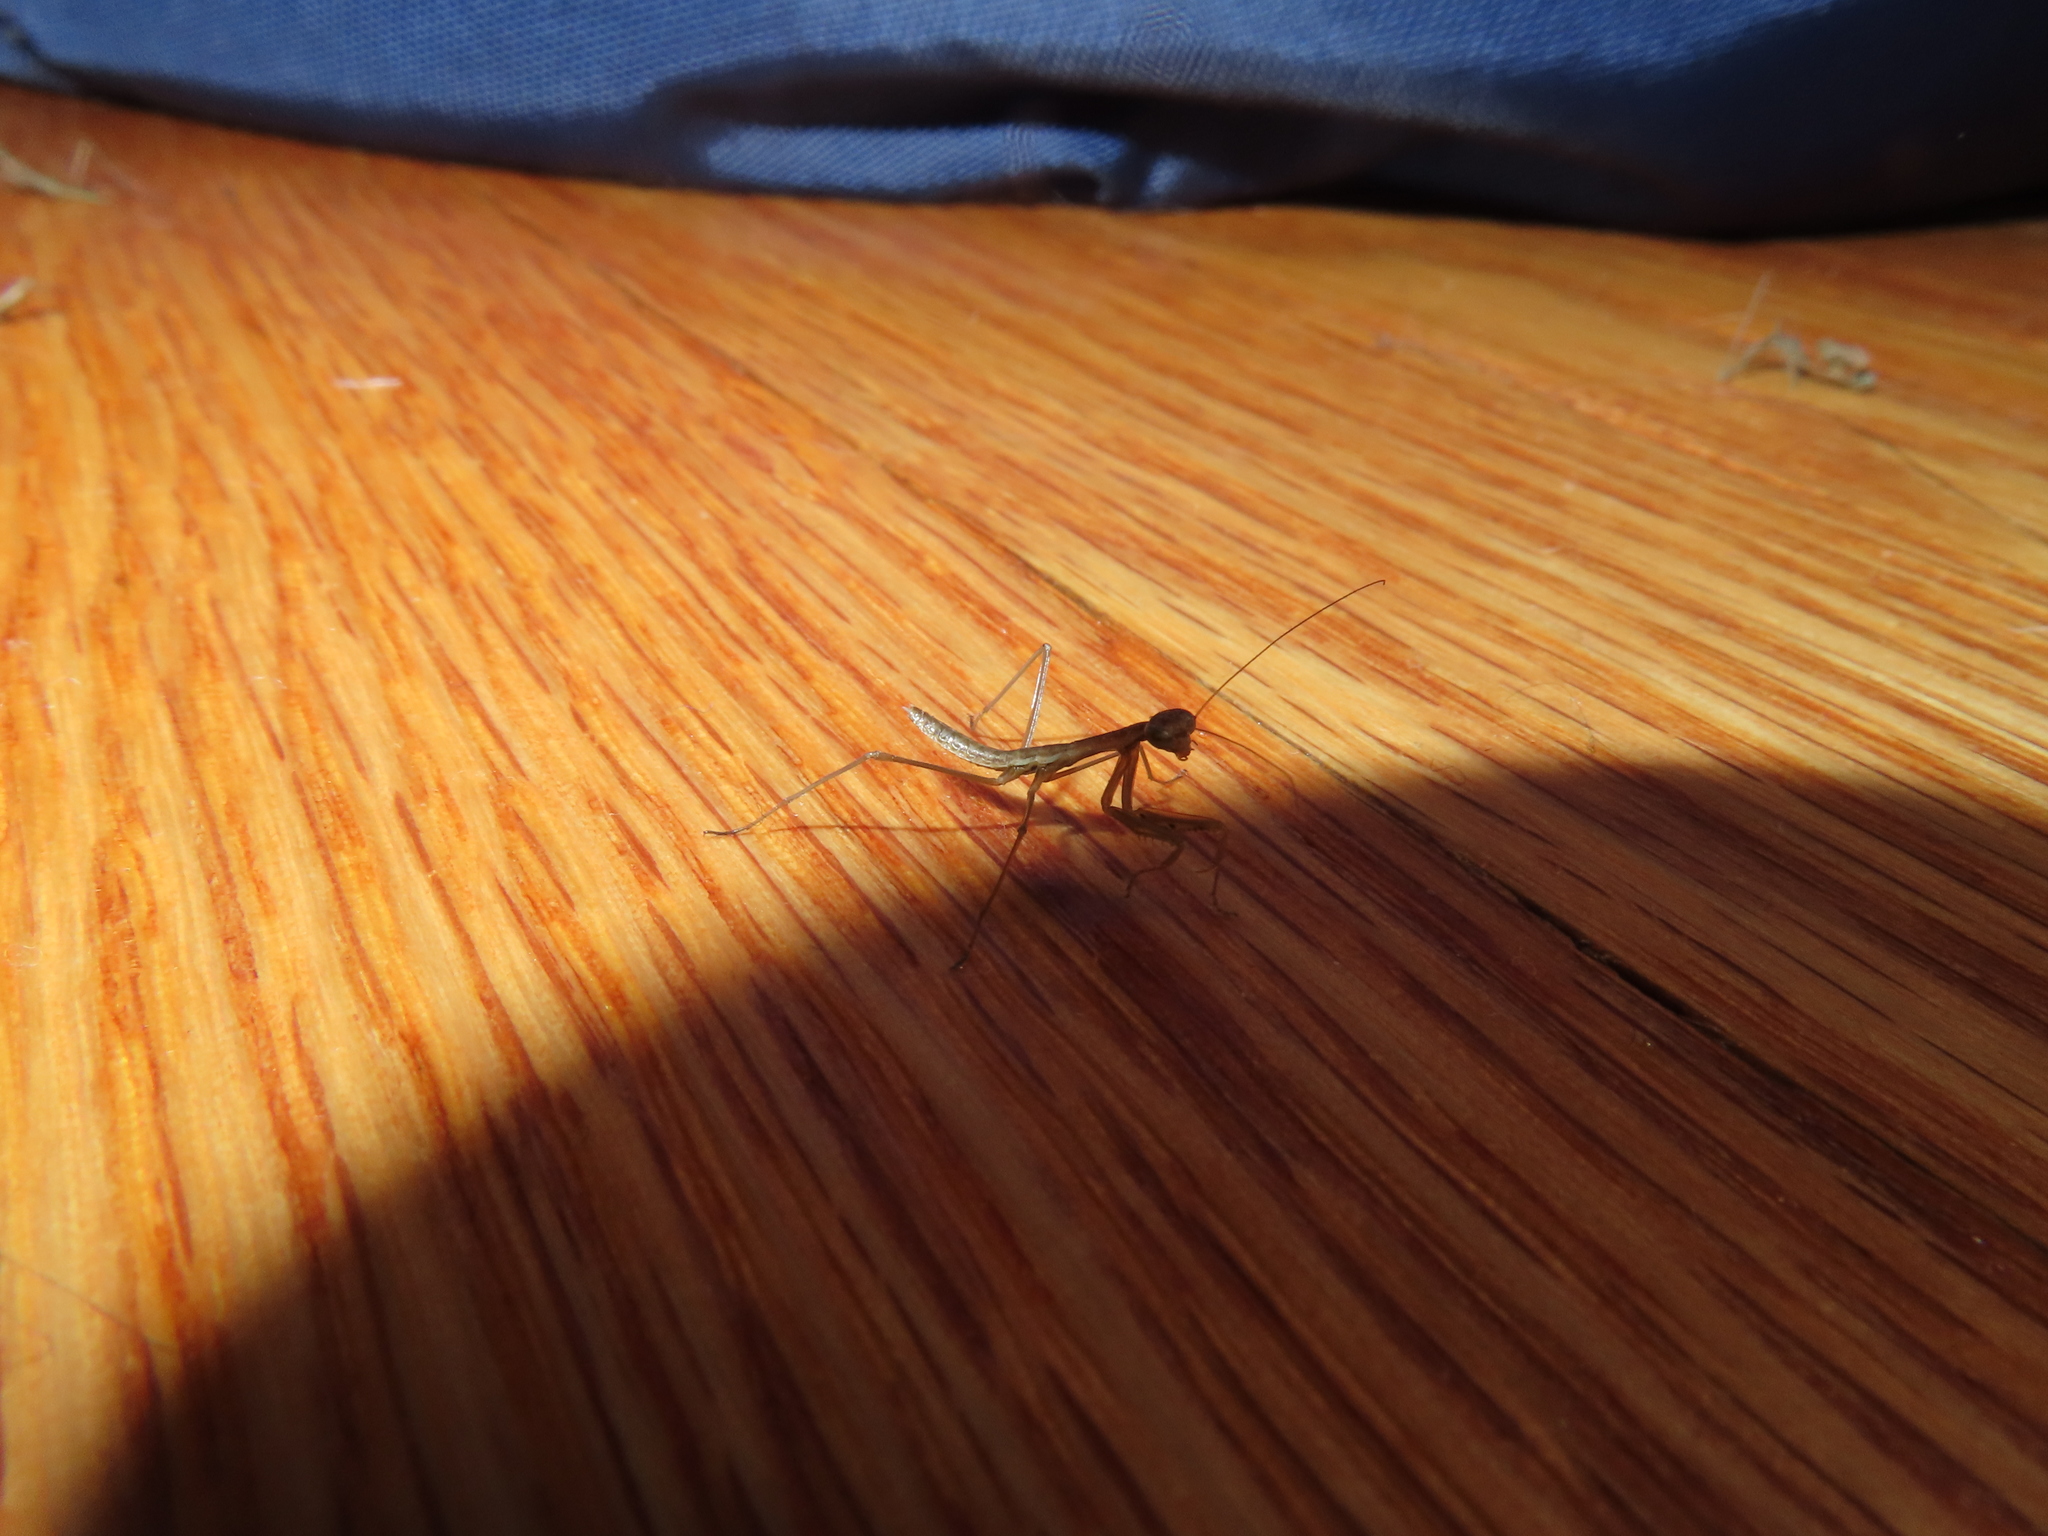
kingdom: Animalia
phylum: Arthropoda
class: Insecta
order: Mantodea
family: Mantidae
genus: Tenodera
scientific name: Tenodera sinensis
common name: Chinese mantis
